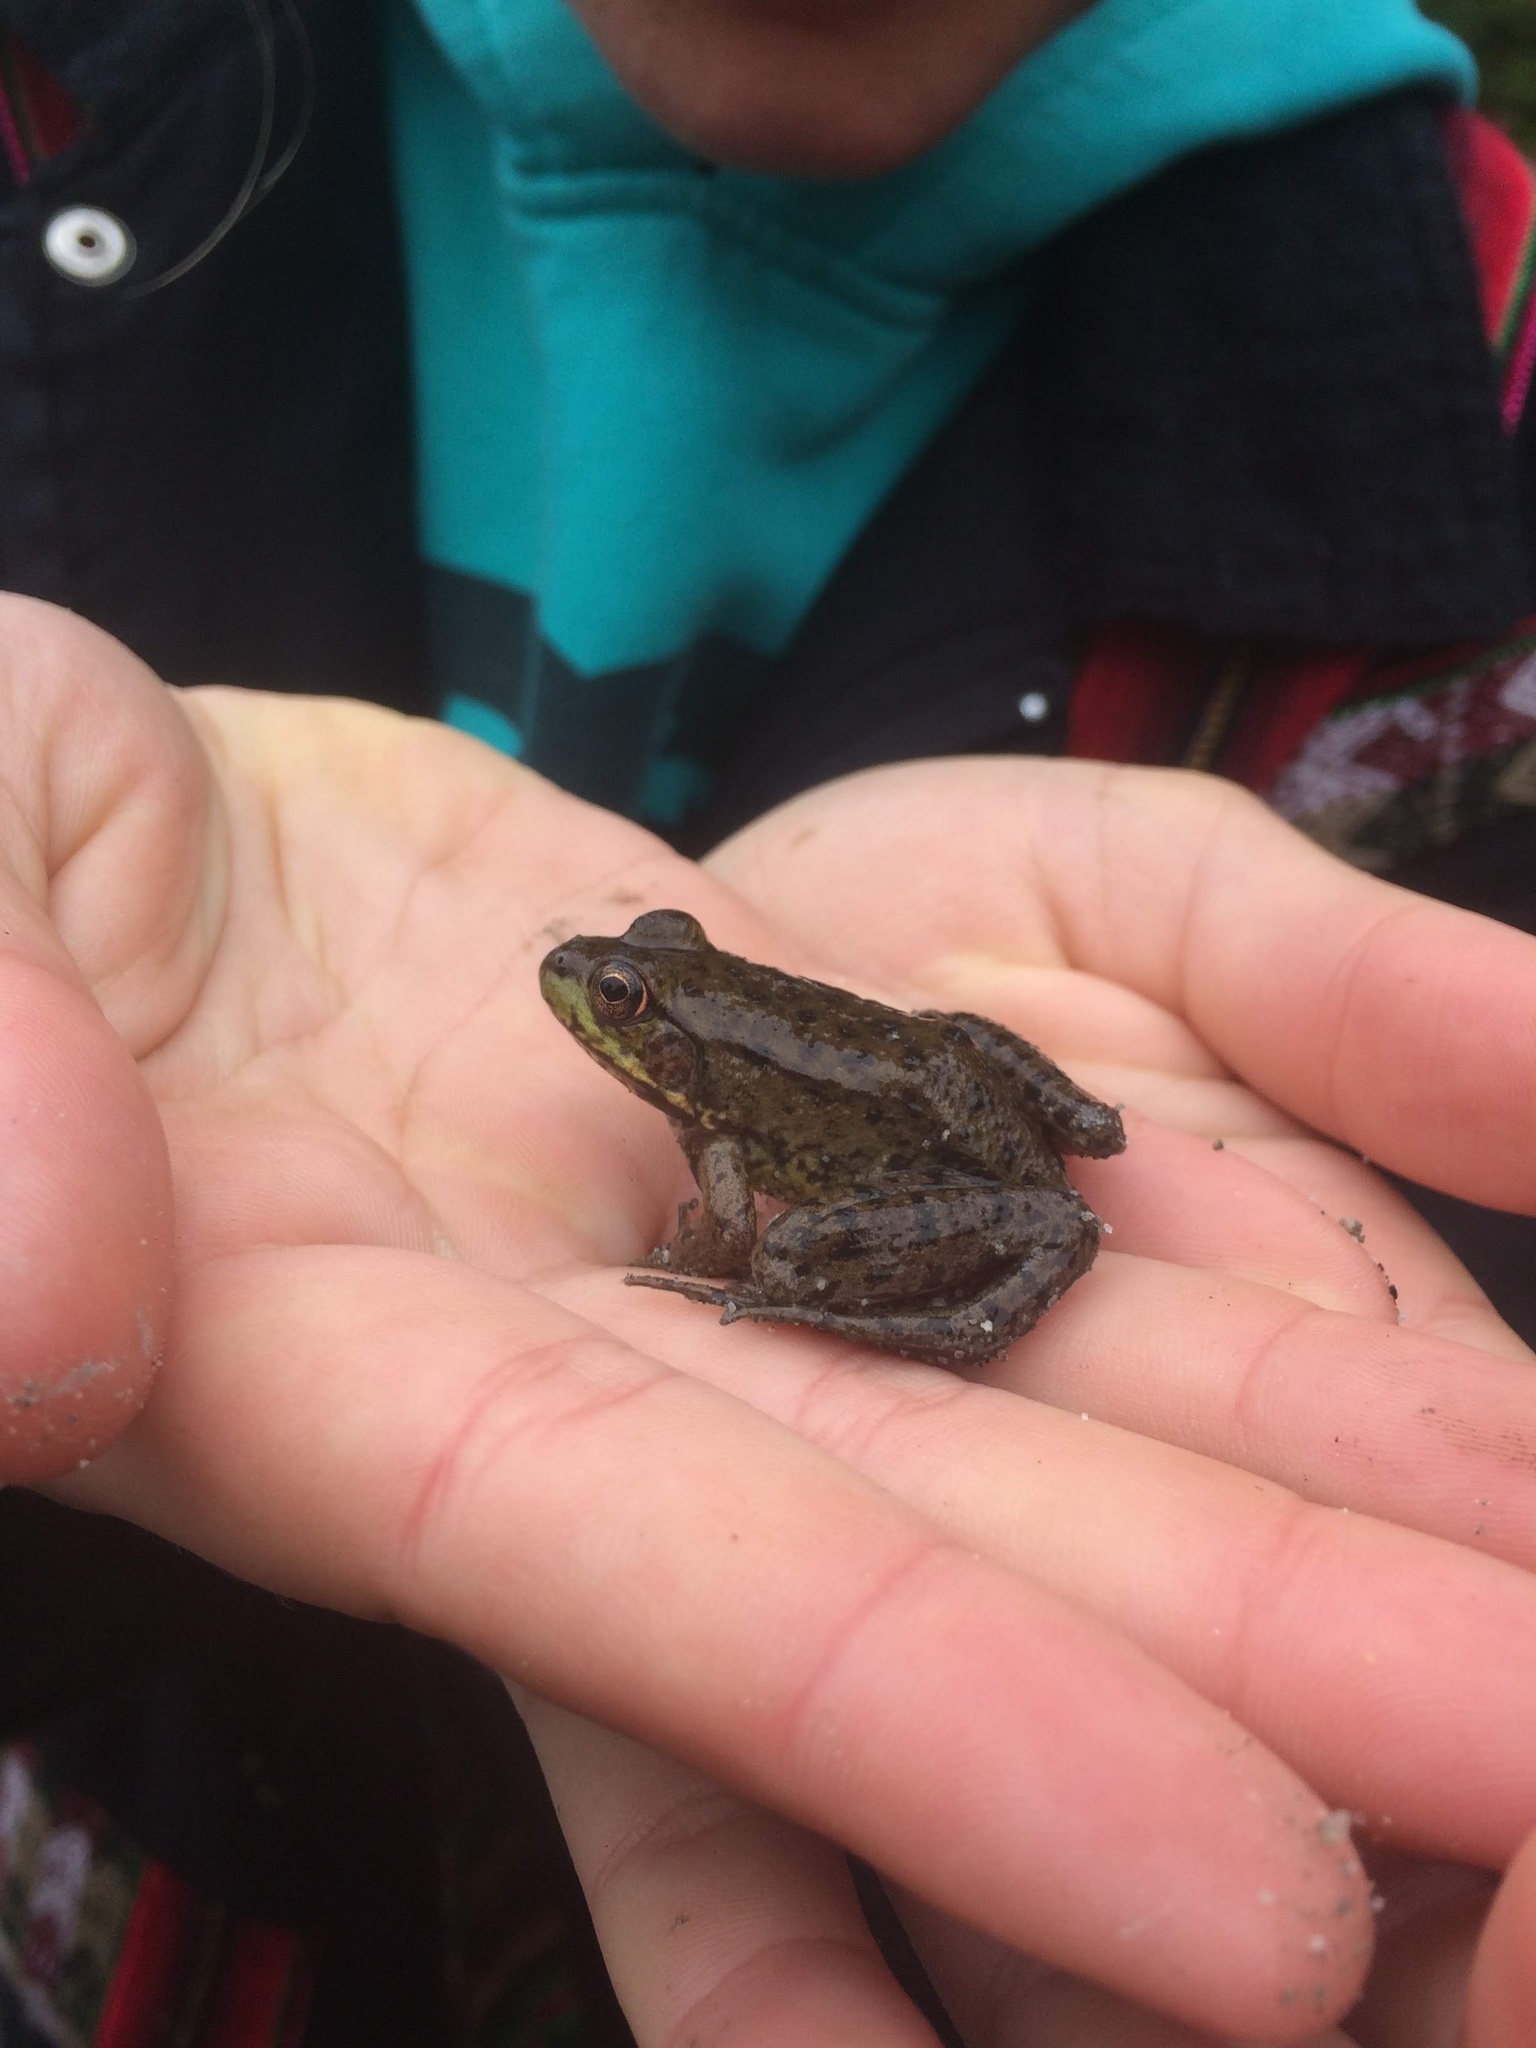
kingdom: Animalia
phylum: Chordata
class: Amphibia
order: Anura
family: Ranidae
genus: Lithobates
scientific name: Lithobates clamitans
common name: Green frog
